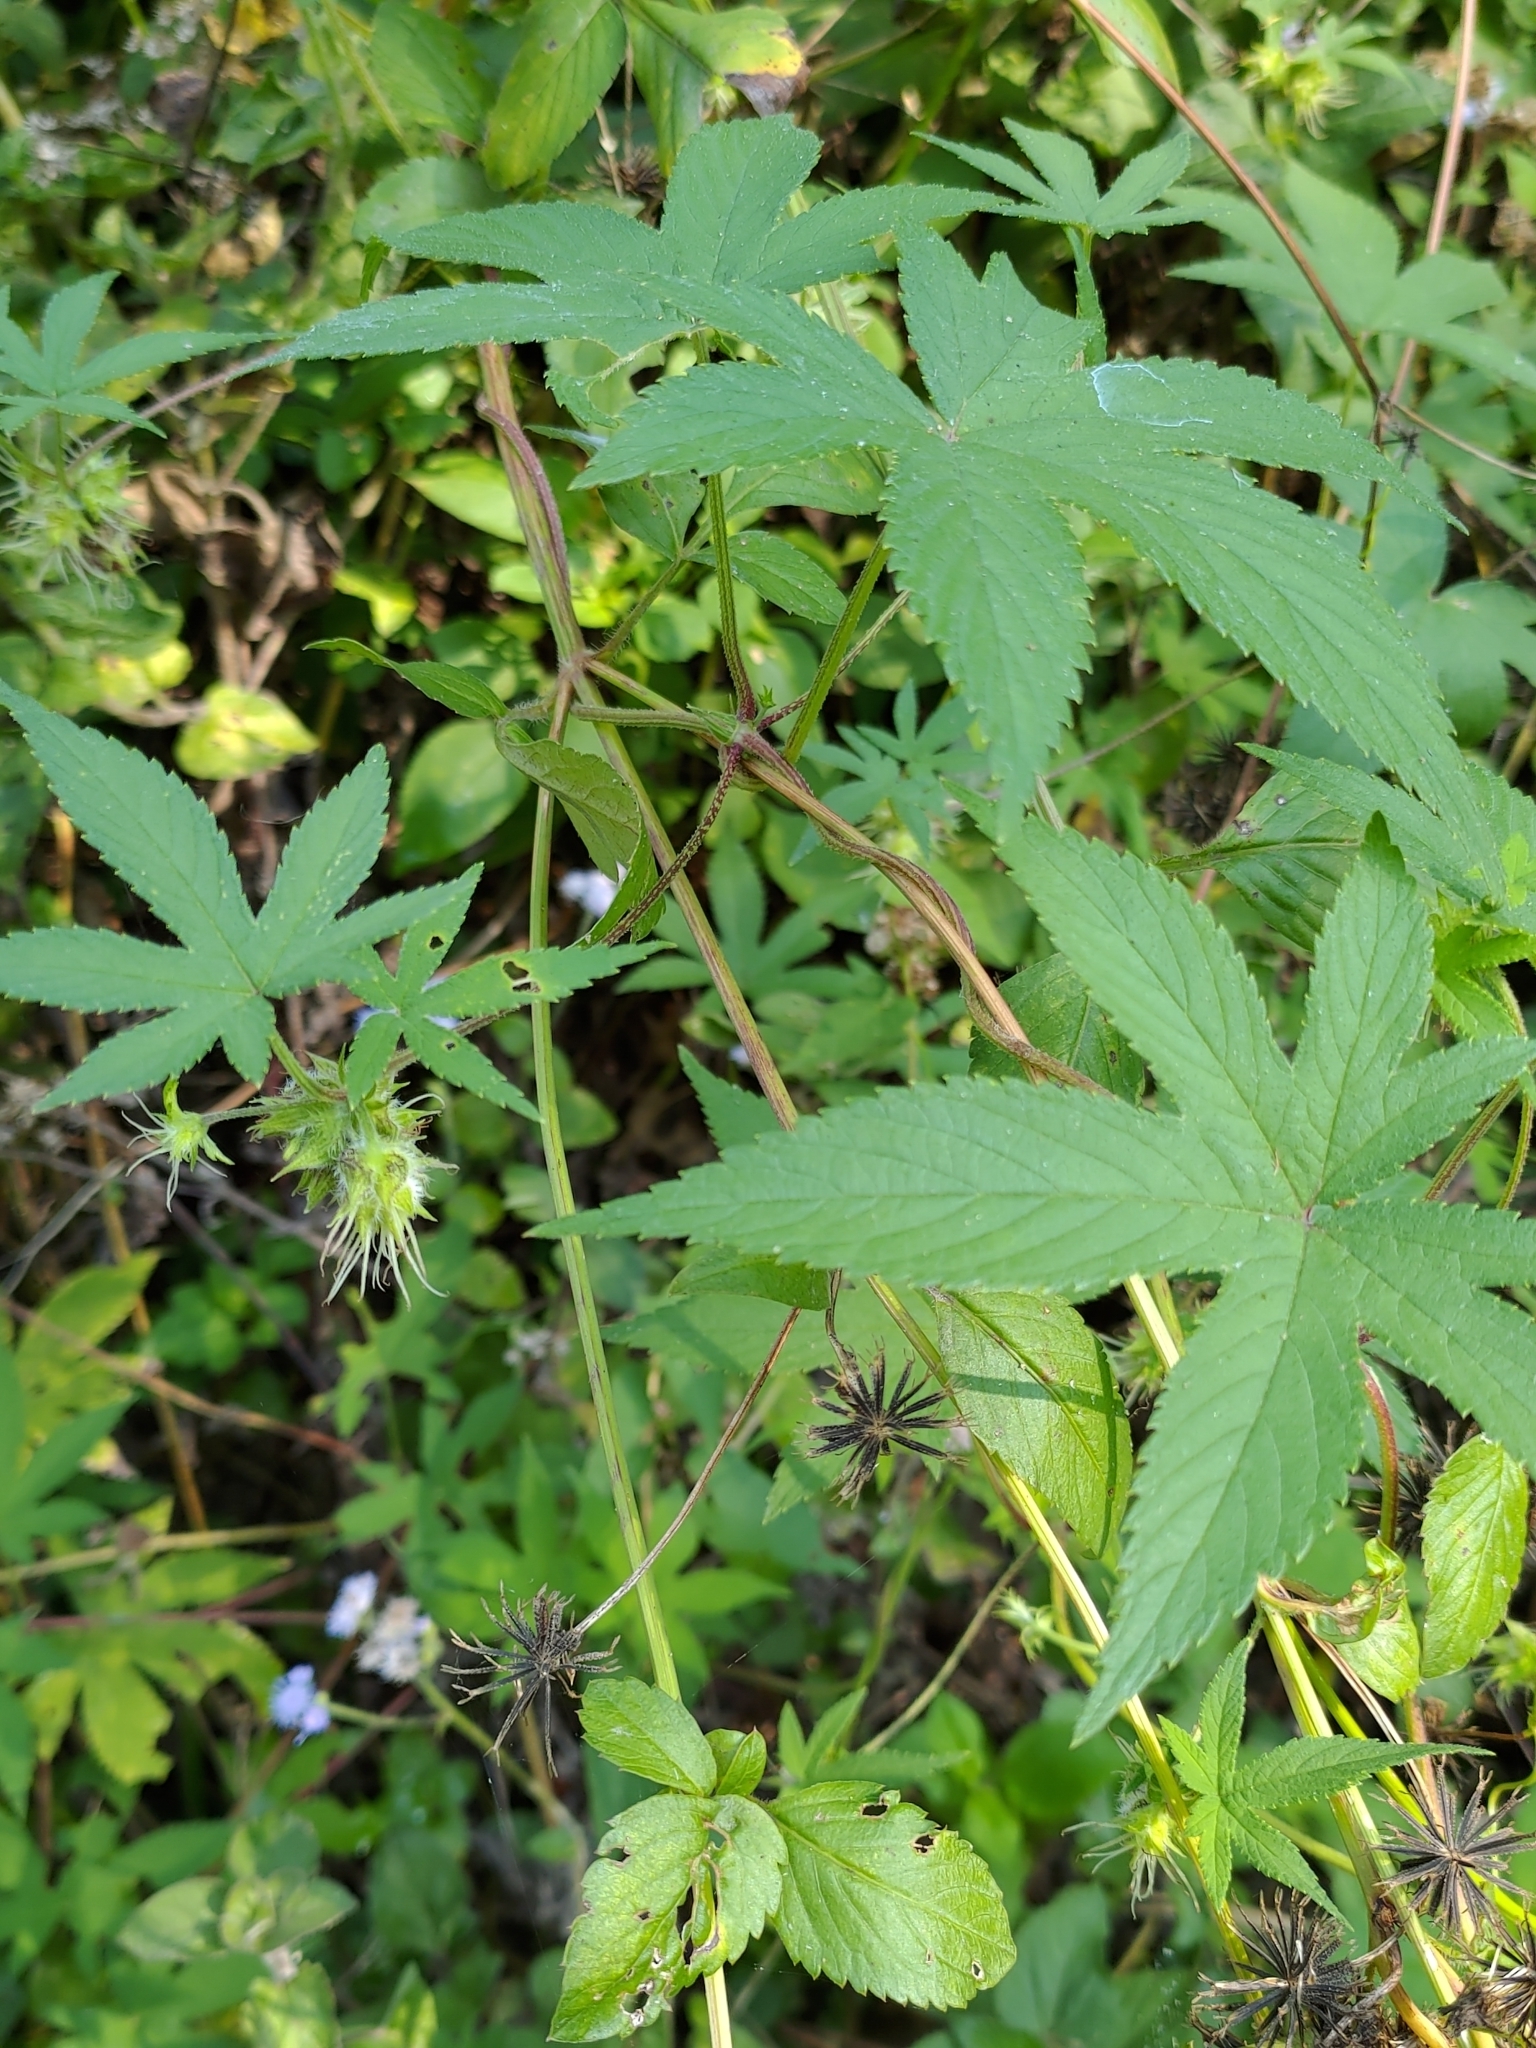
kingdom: Plantae
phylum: Tracheophyta
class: Magnoliopsida
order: Rosales
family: Cannabaceae
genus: Humulus
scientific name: Humulus scandens
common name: Japanese hop
